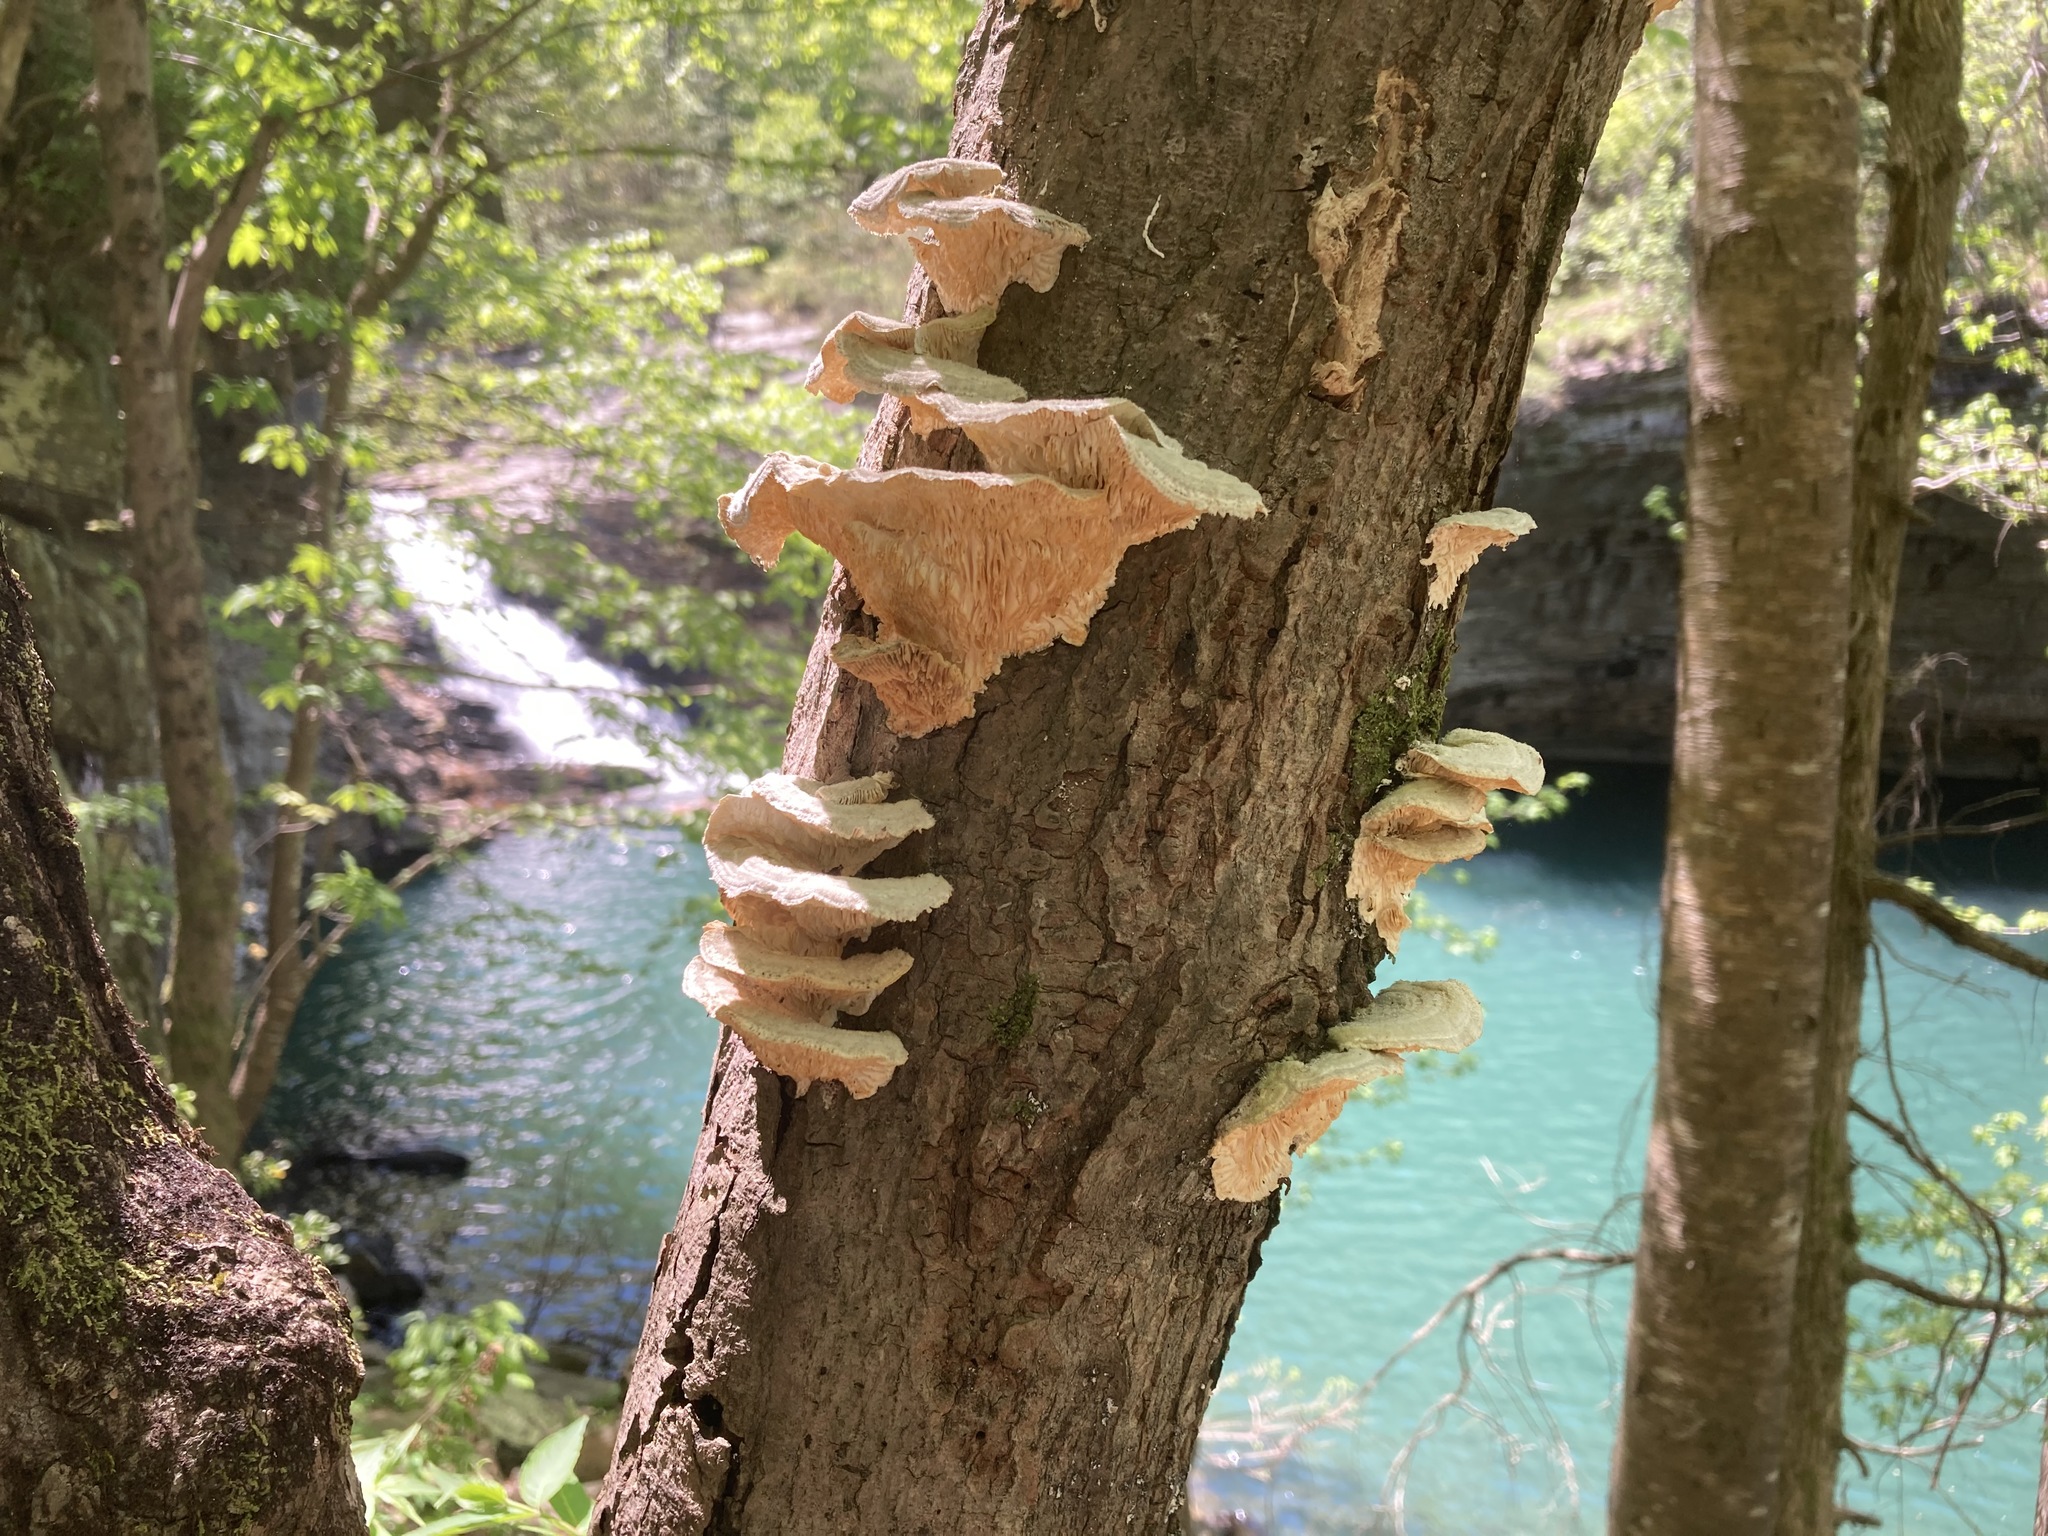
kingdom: Fungi
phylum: Basidiomycota
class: Agaricomycetes
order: Polyporales
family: Polyporaceae
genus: Lenzites
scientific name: Lenzites betulinus
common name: Birch mazegill
